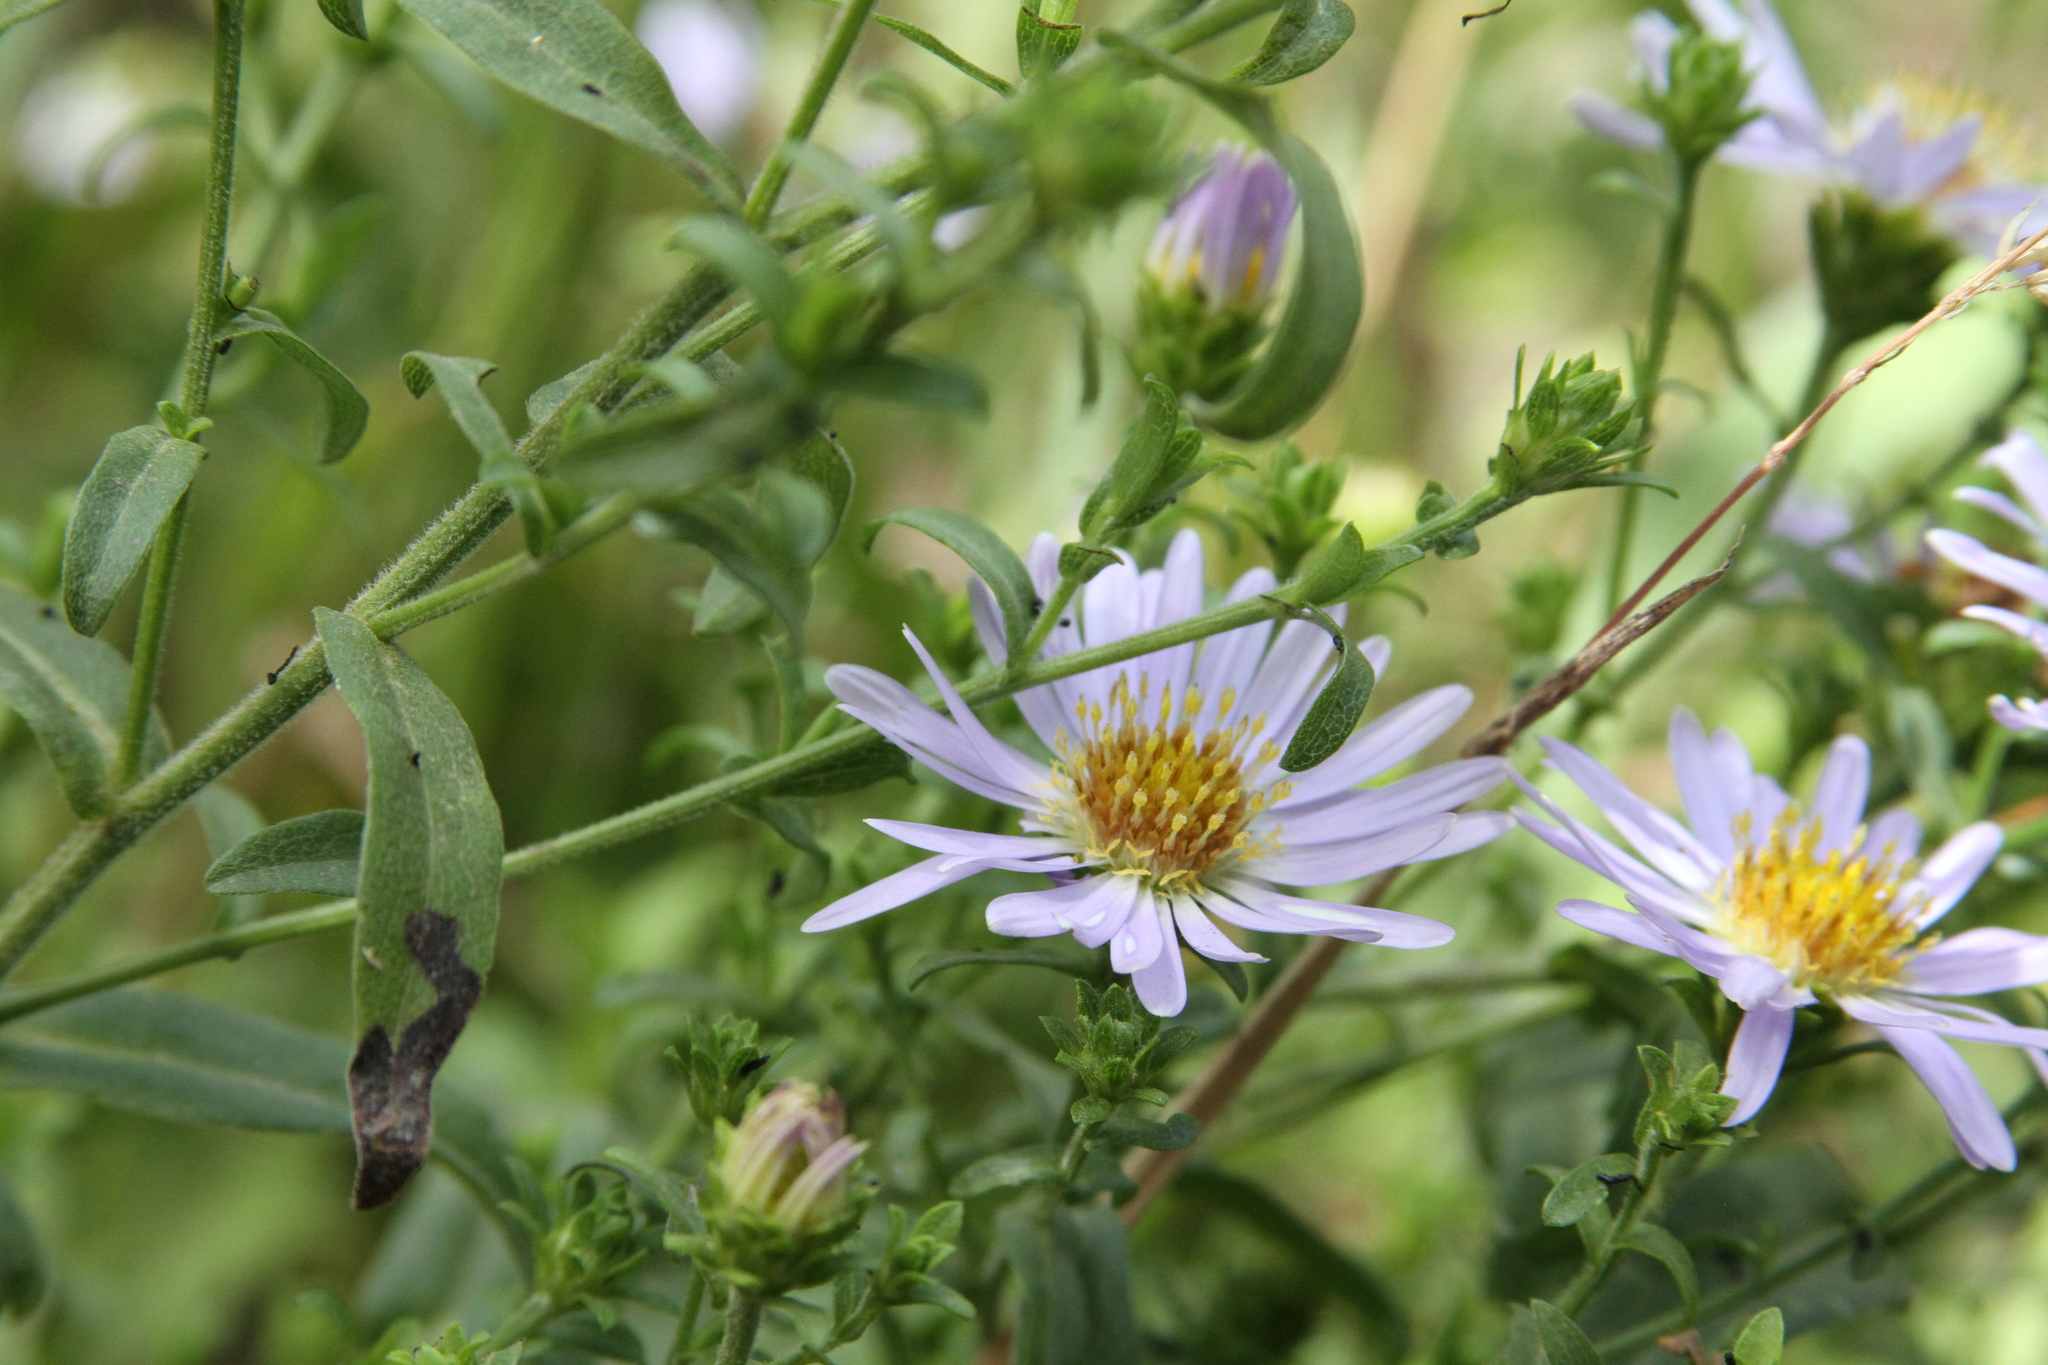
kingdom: Plantae
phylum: Tracheophyta
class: Magnoliopsida
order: Asterales
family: Asteraceae
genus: Symphyotrichum
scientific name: Symphyotrichum chilense
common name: Pacific aster
